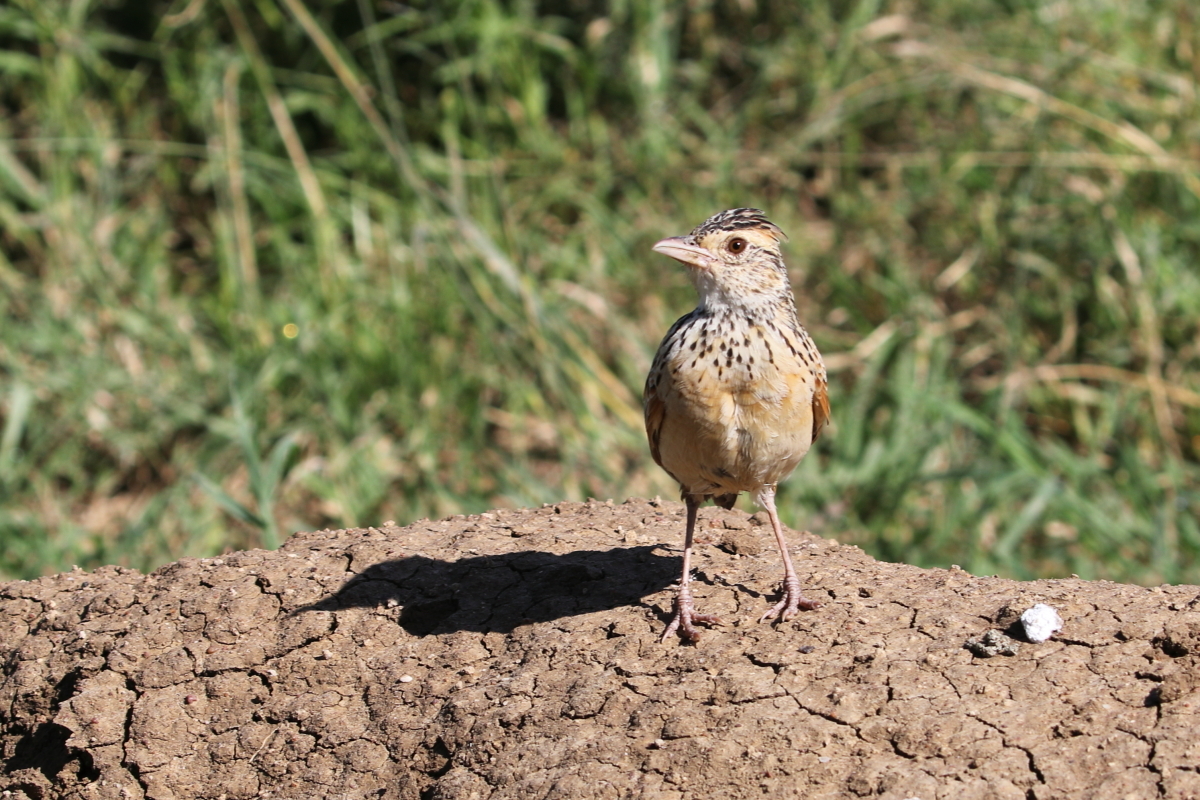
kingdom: Animalia
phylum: Chordata
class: Aves
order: Passeriformes
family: Alaudidae
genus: Mirafra
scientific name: Mirafra africana
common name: Rufous-naped lark
